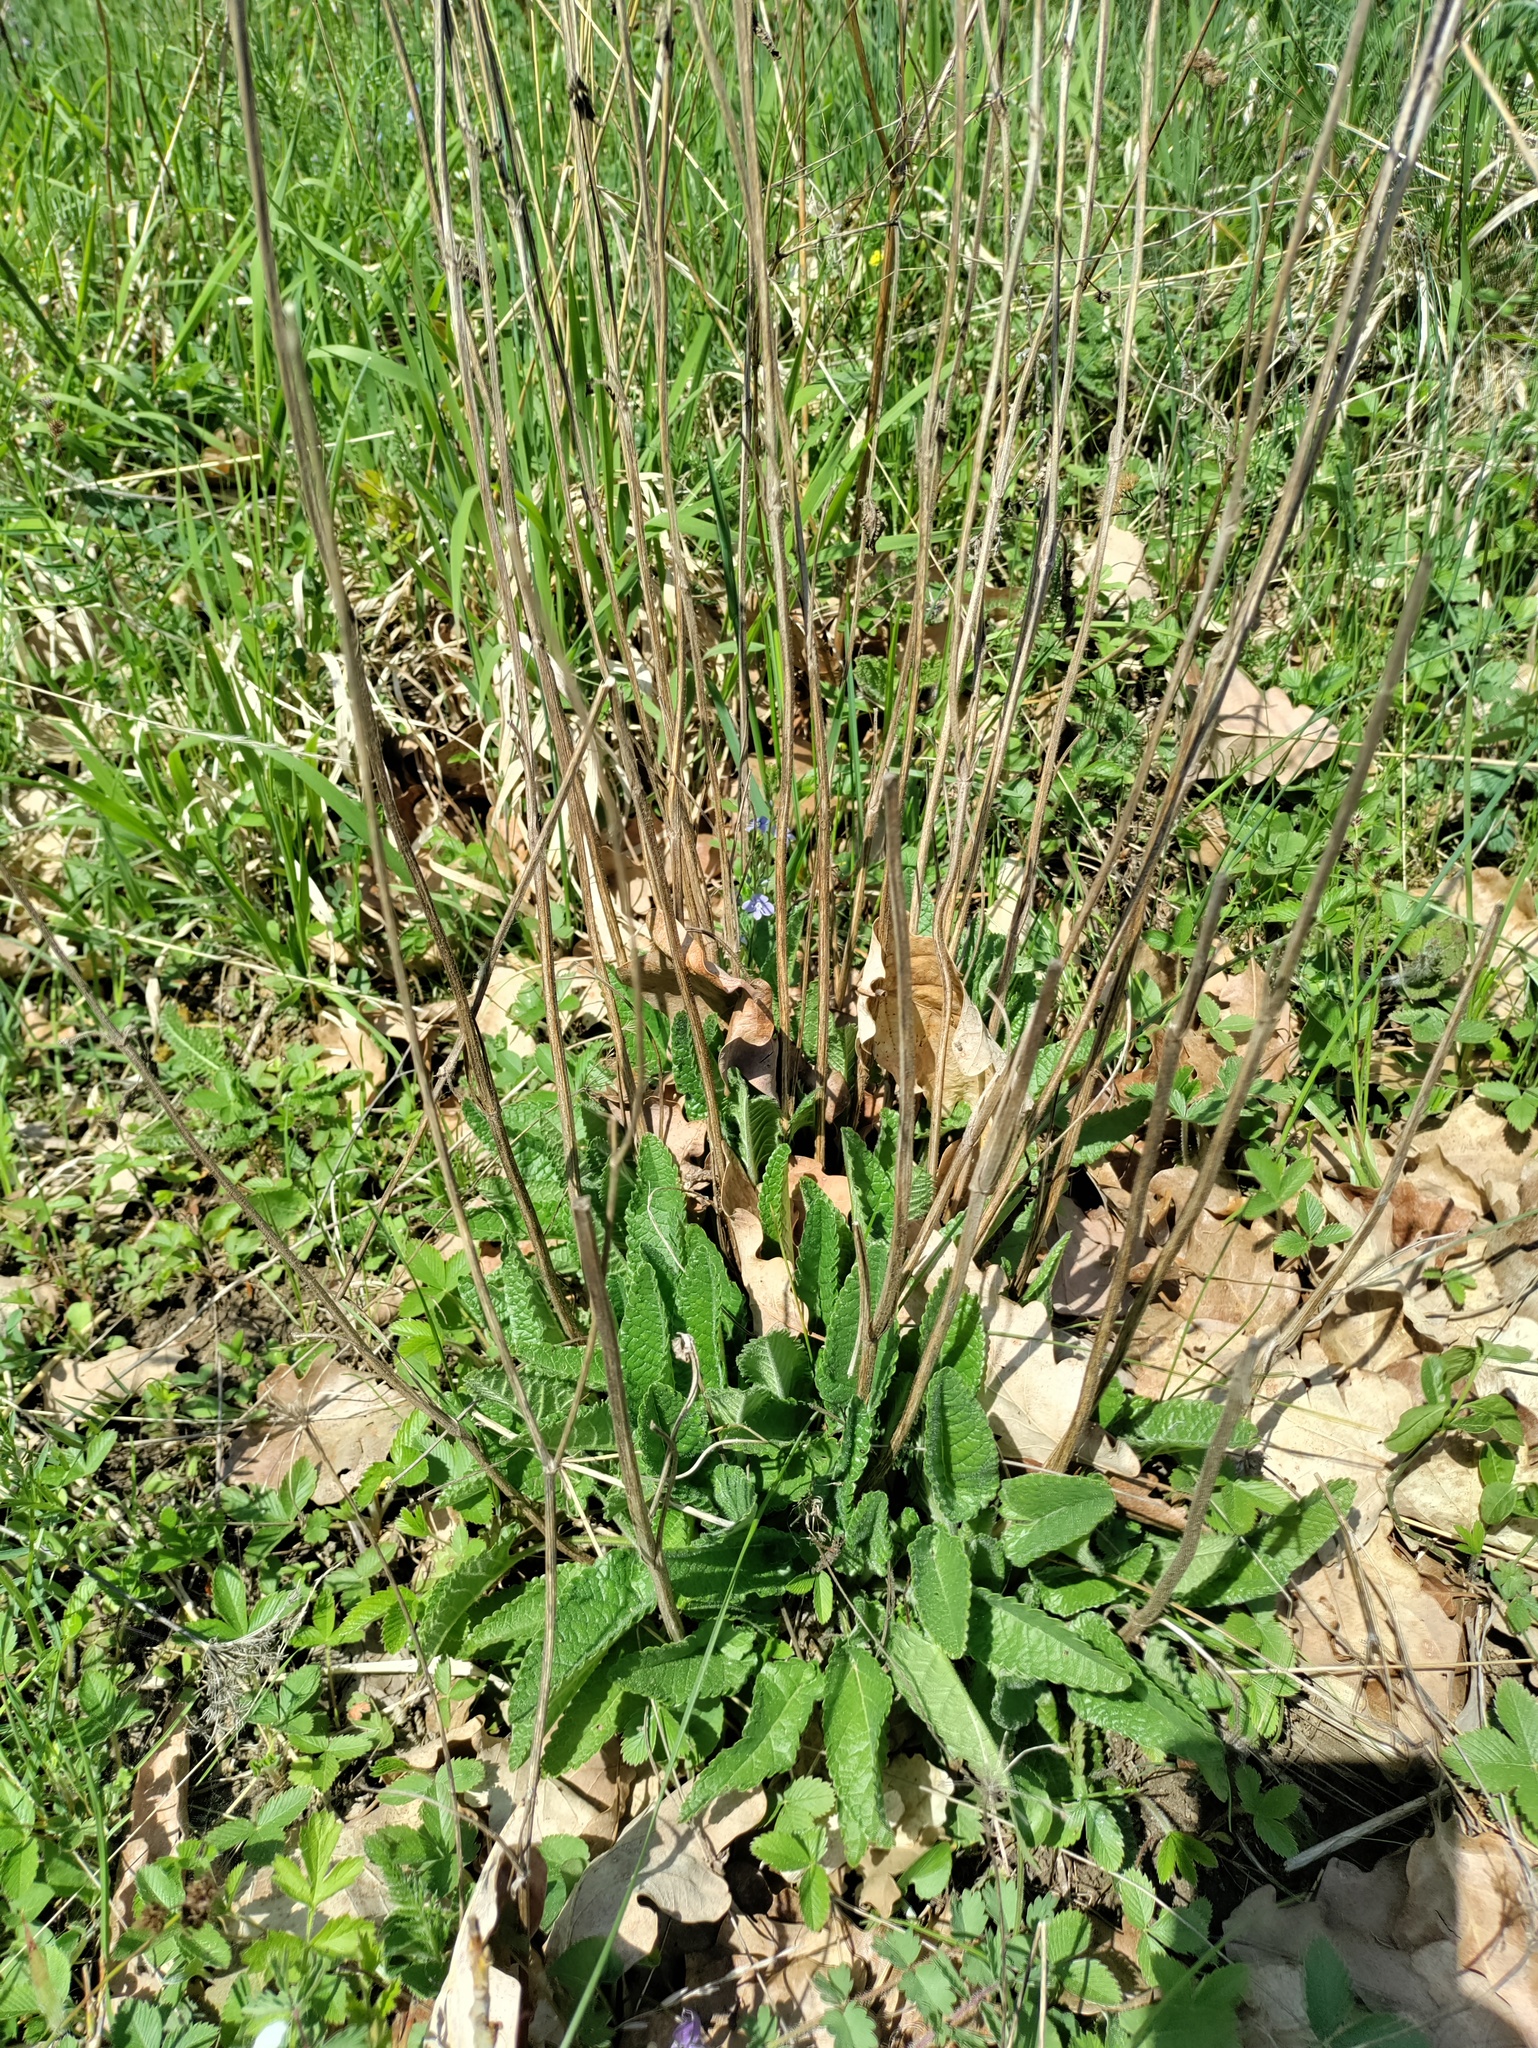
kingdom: Plantae
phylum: Tracheophyta
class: Magnoliopsida
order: Lamiales
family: Lamiaceae
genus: Betonica
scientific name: Betonica officinalis
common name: Bishop's-wort
